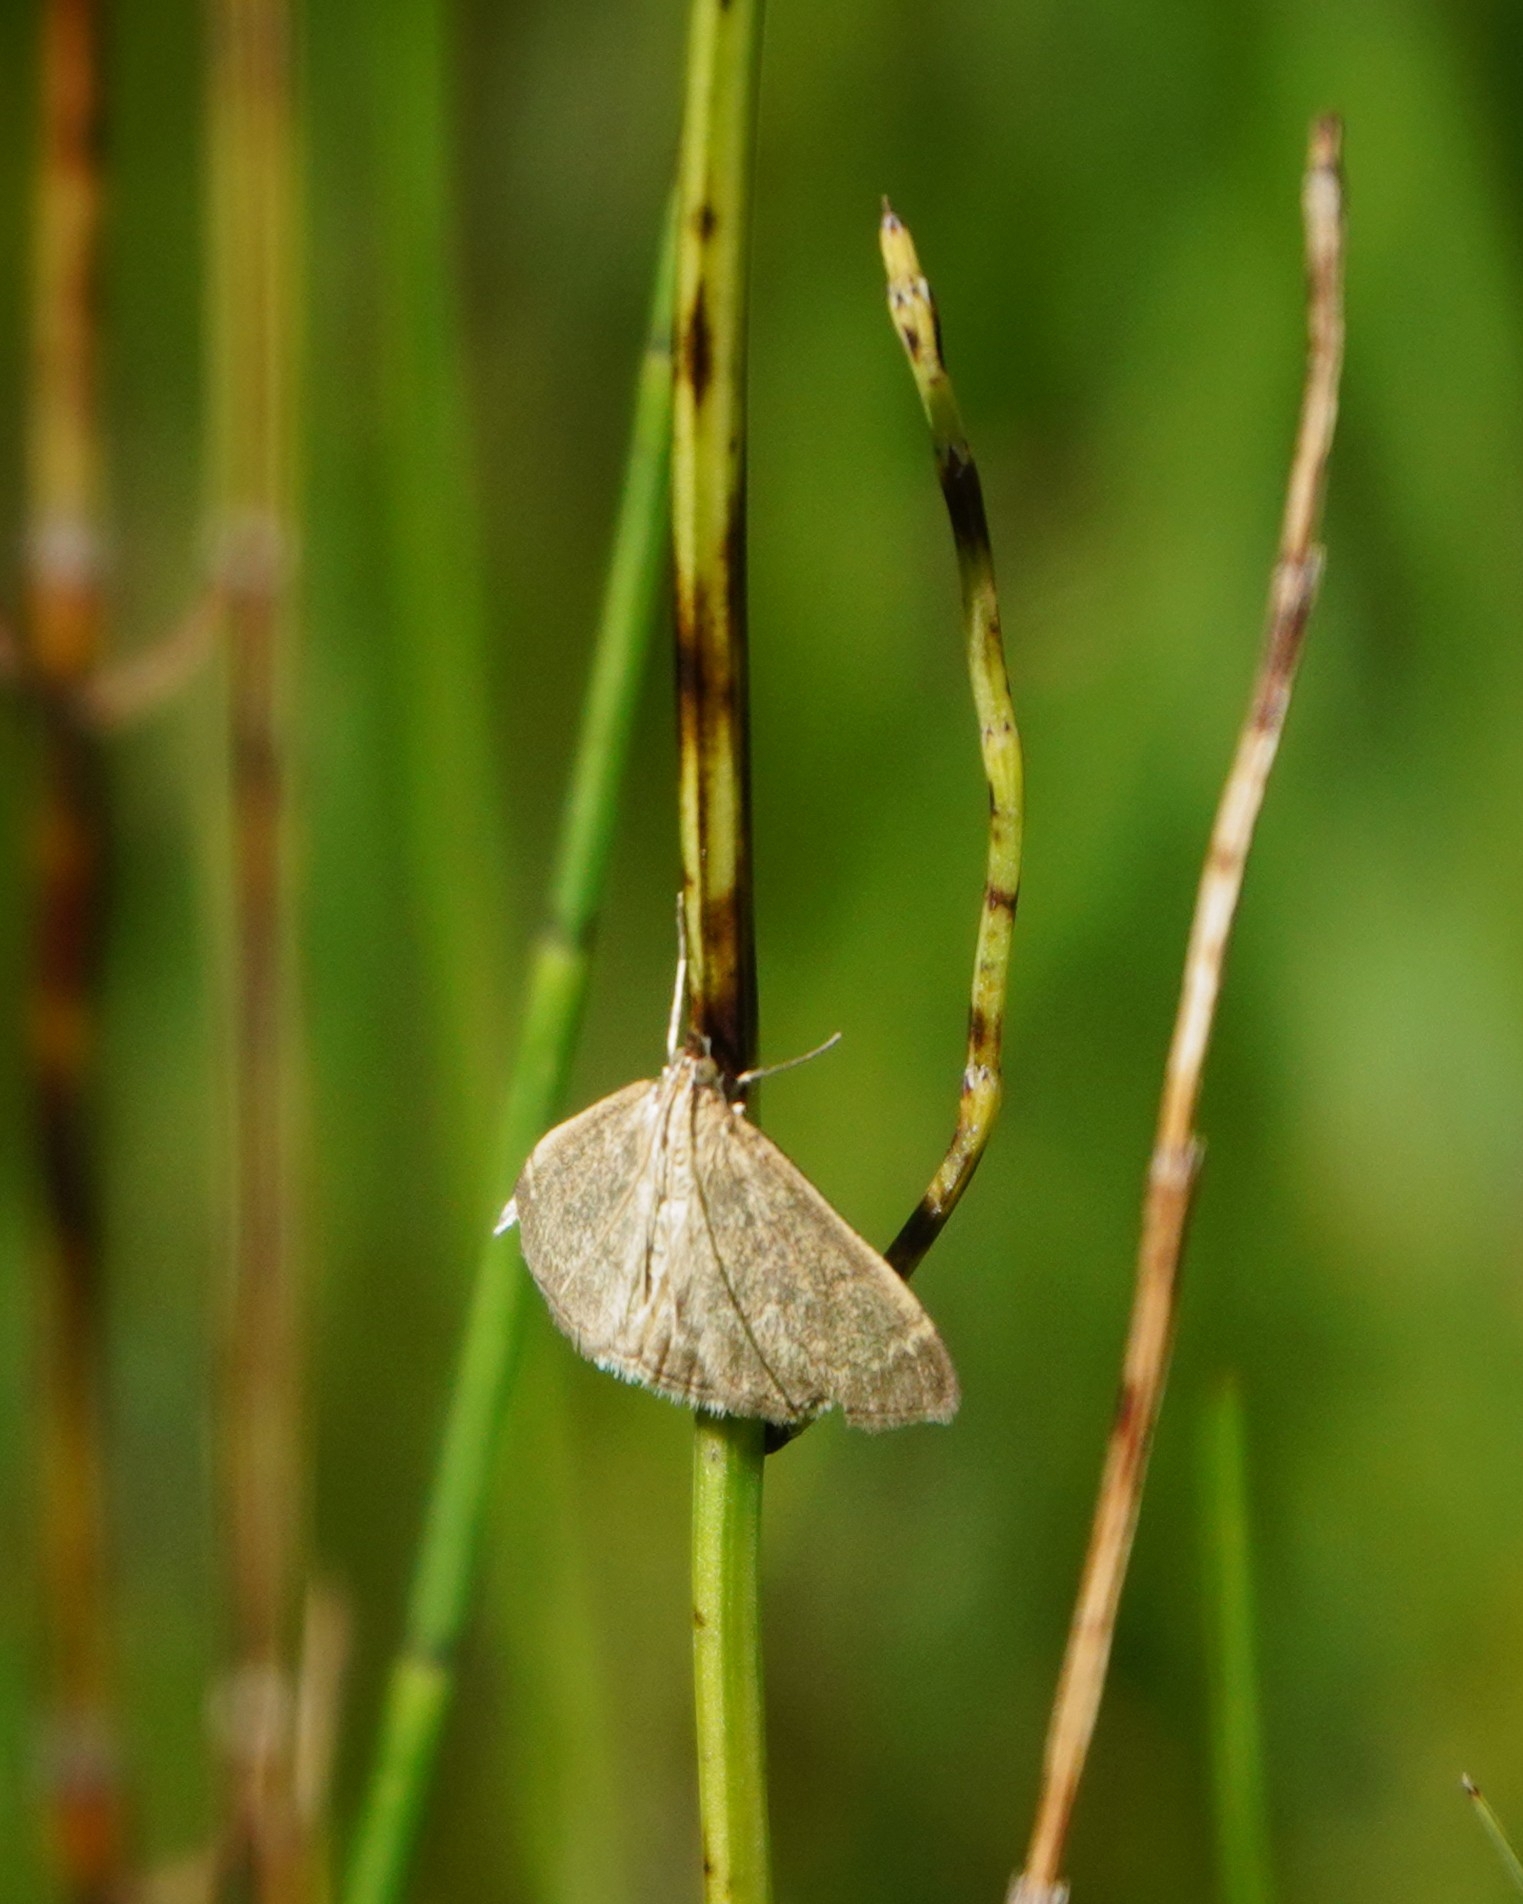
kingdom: Animalia
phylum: Arthropoda
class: Insecta
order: Lepidoptera
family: Crambidae
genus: Anania
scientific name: Anania fuscalis
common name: Cinerous pearl
